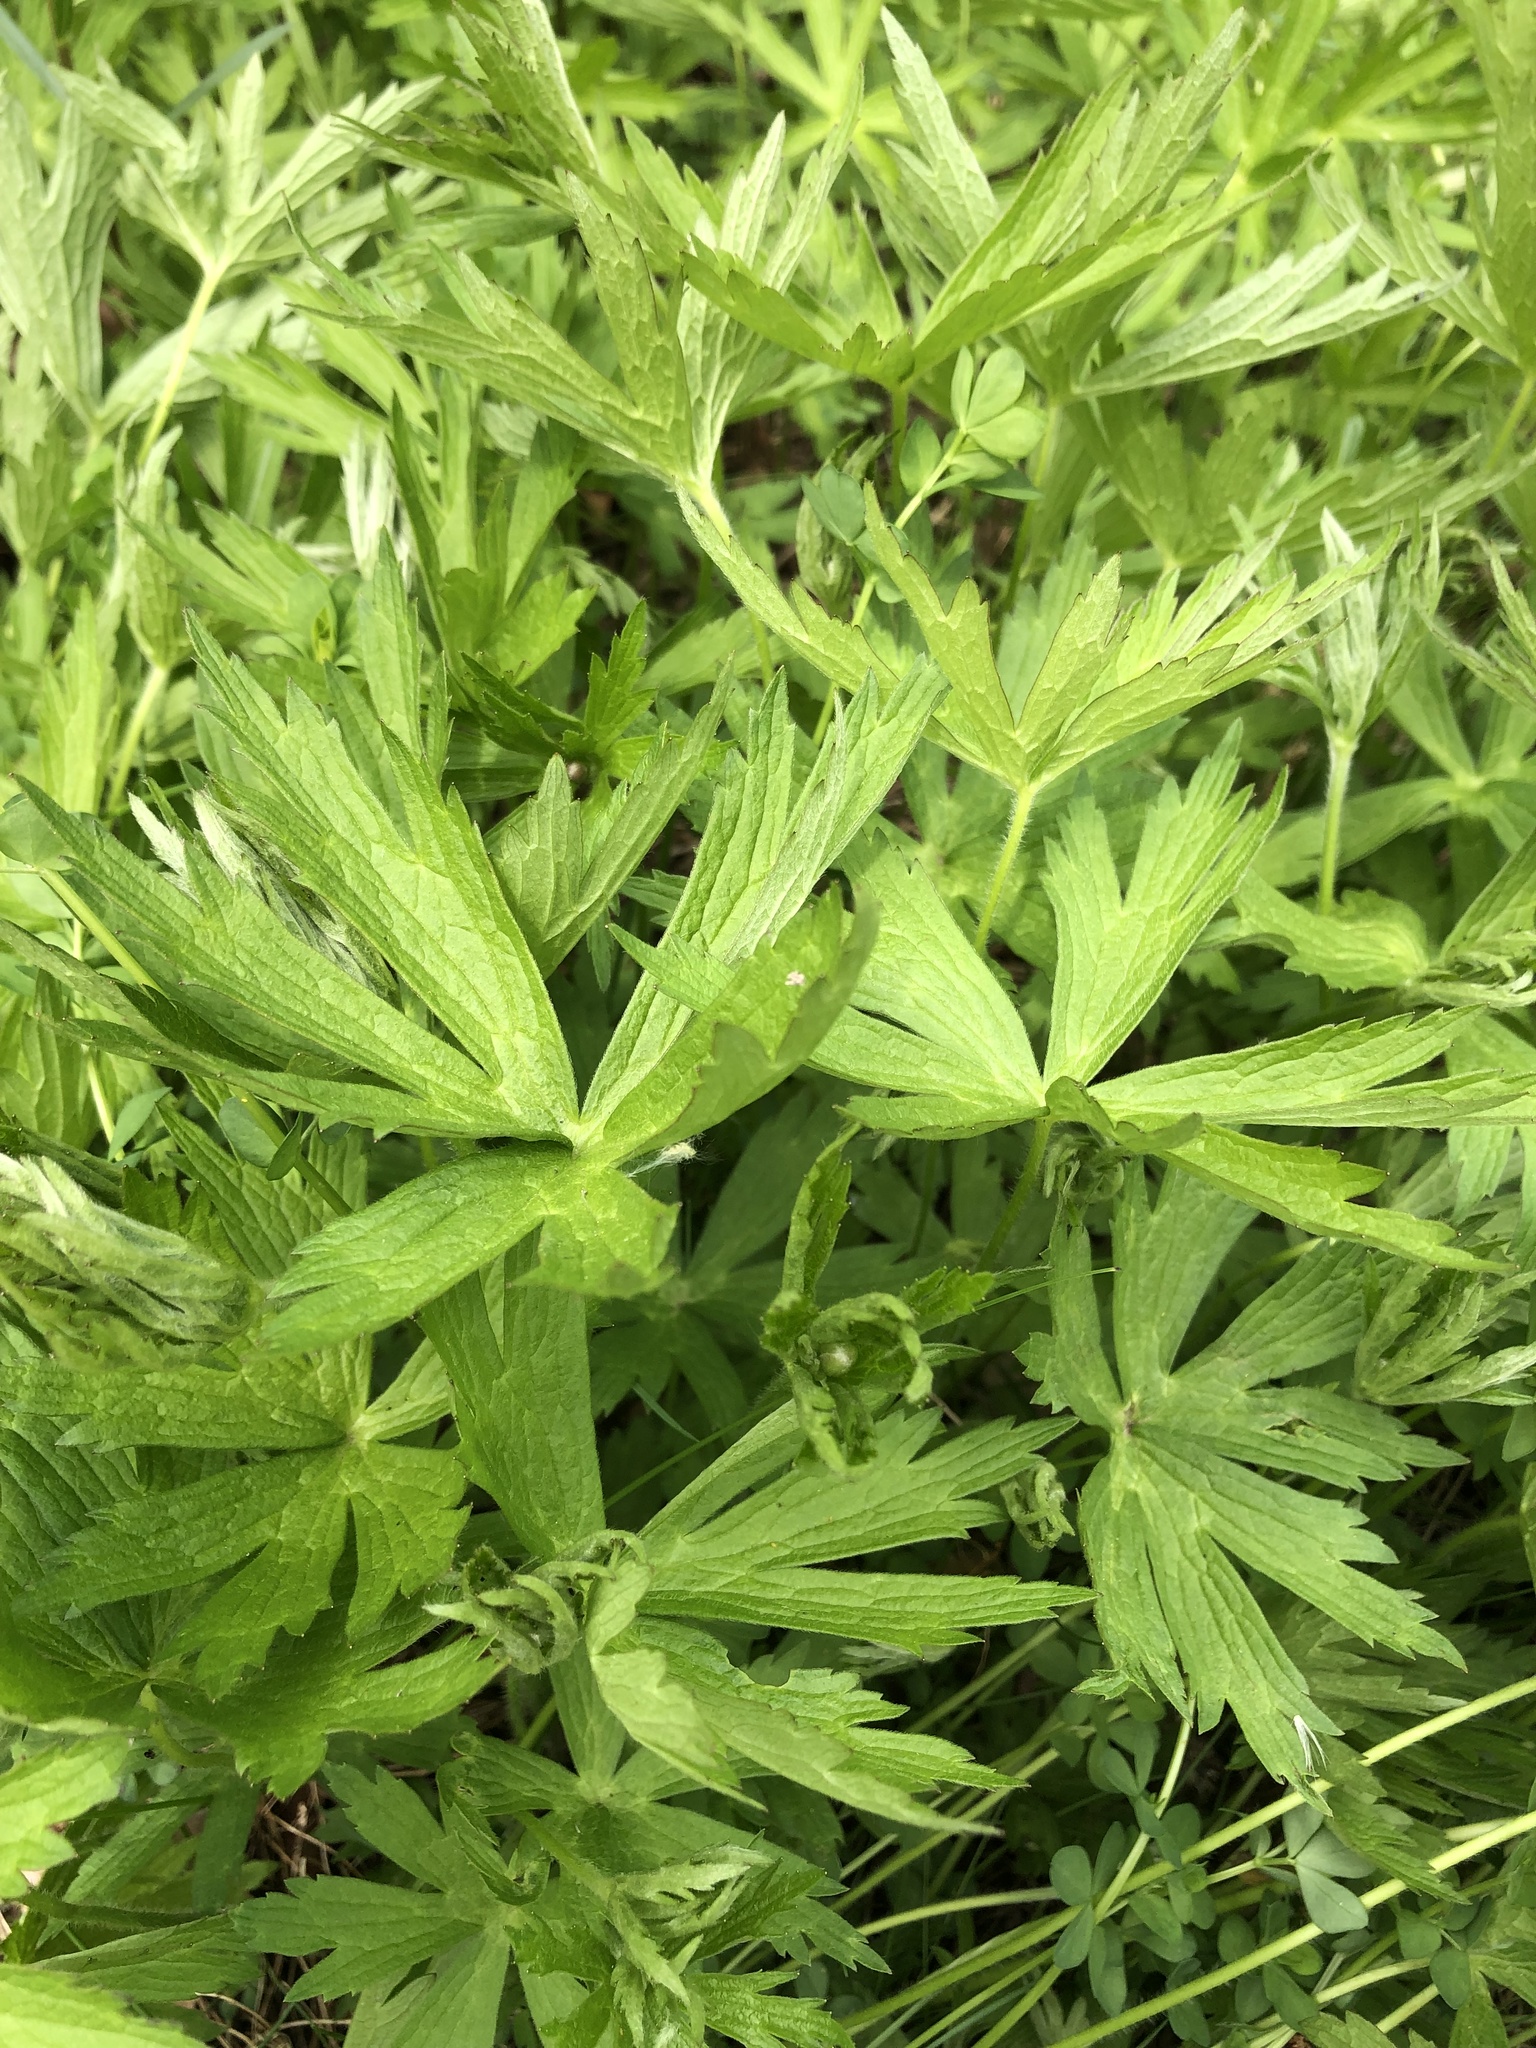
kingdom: Plantae
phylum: Tracheophyta
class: Magnoliopsida
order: Ranunculales
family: Ranunculaceae
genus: Anemonastrum
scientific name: Anemonastrum canadense
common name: Canada anemone
